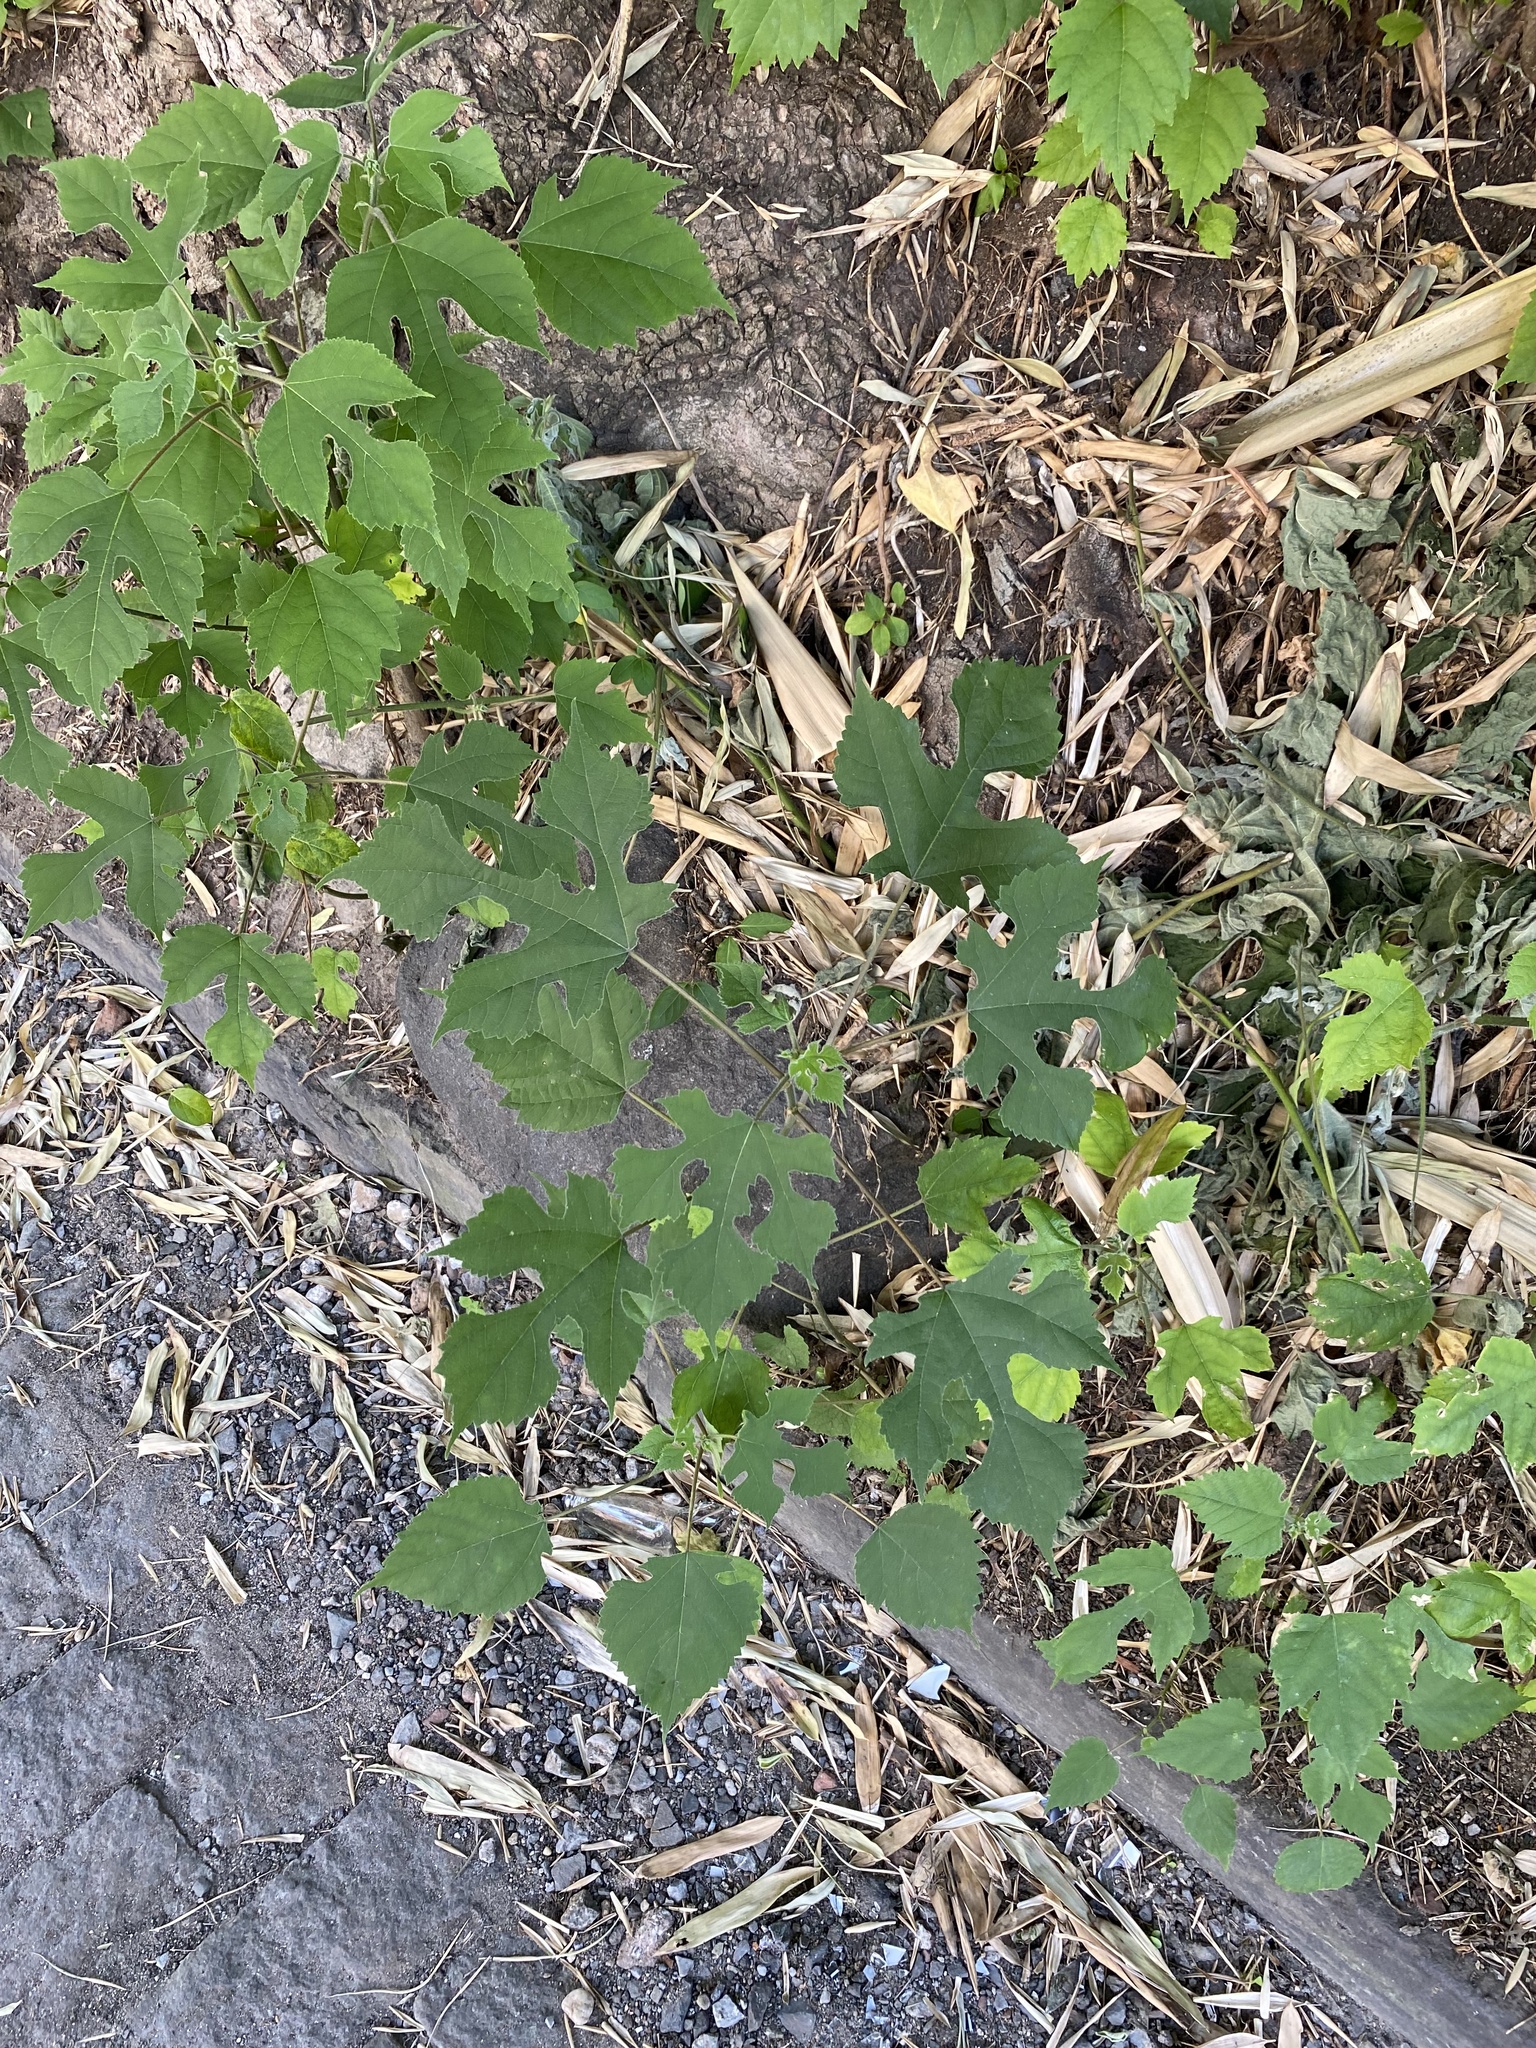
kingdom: Plantae
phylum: Tracheophyta
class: Magnoliopsida
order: Rosales
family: Moraceae
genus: Broussonetia
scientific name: Broussonetia papyrifera
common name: Paper mulberry
